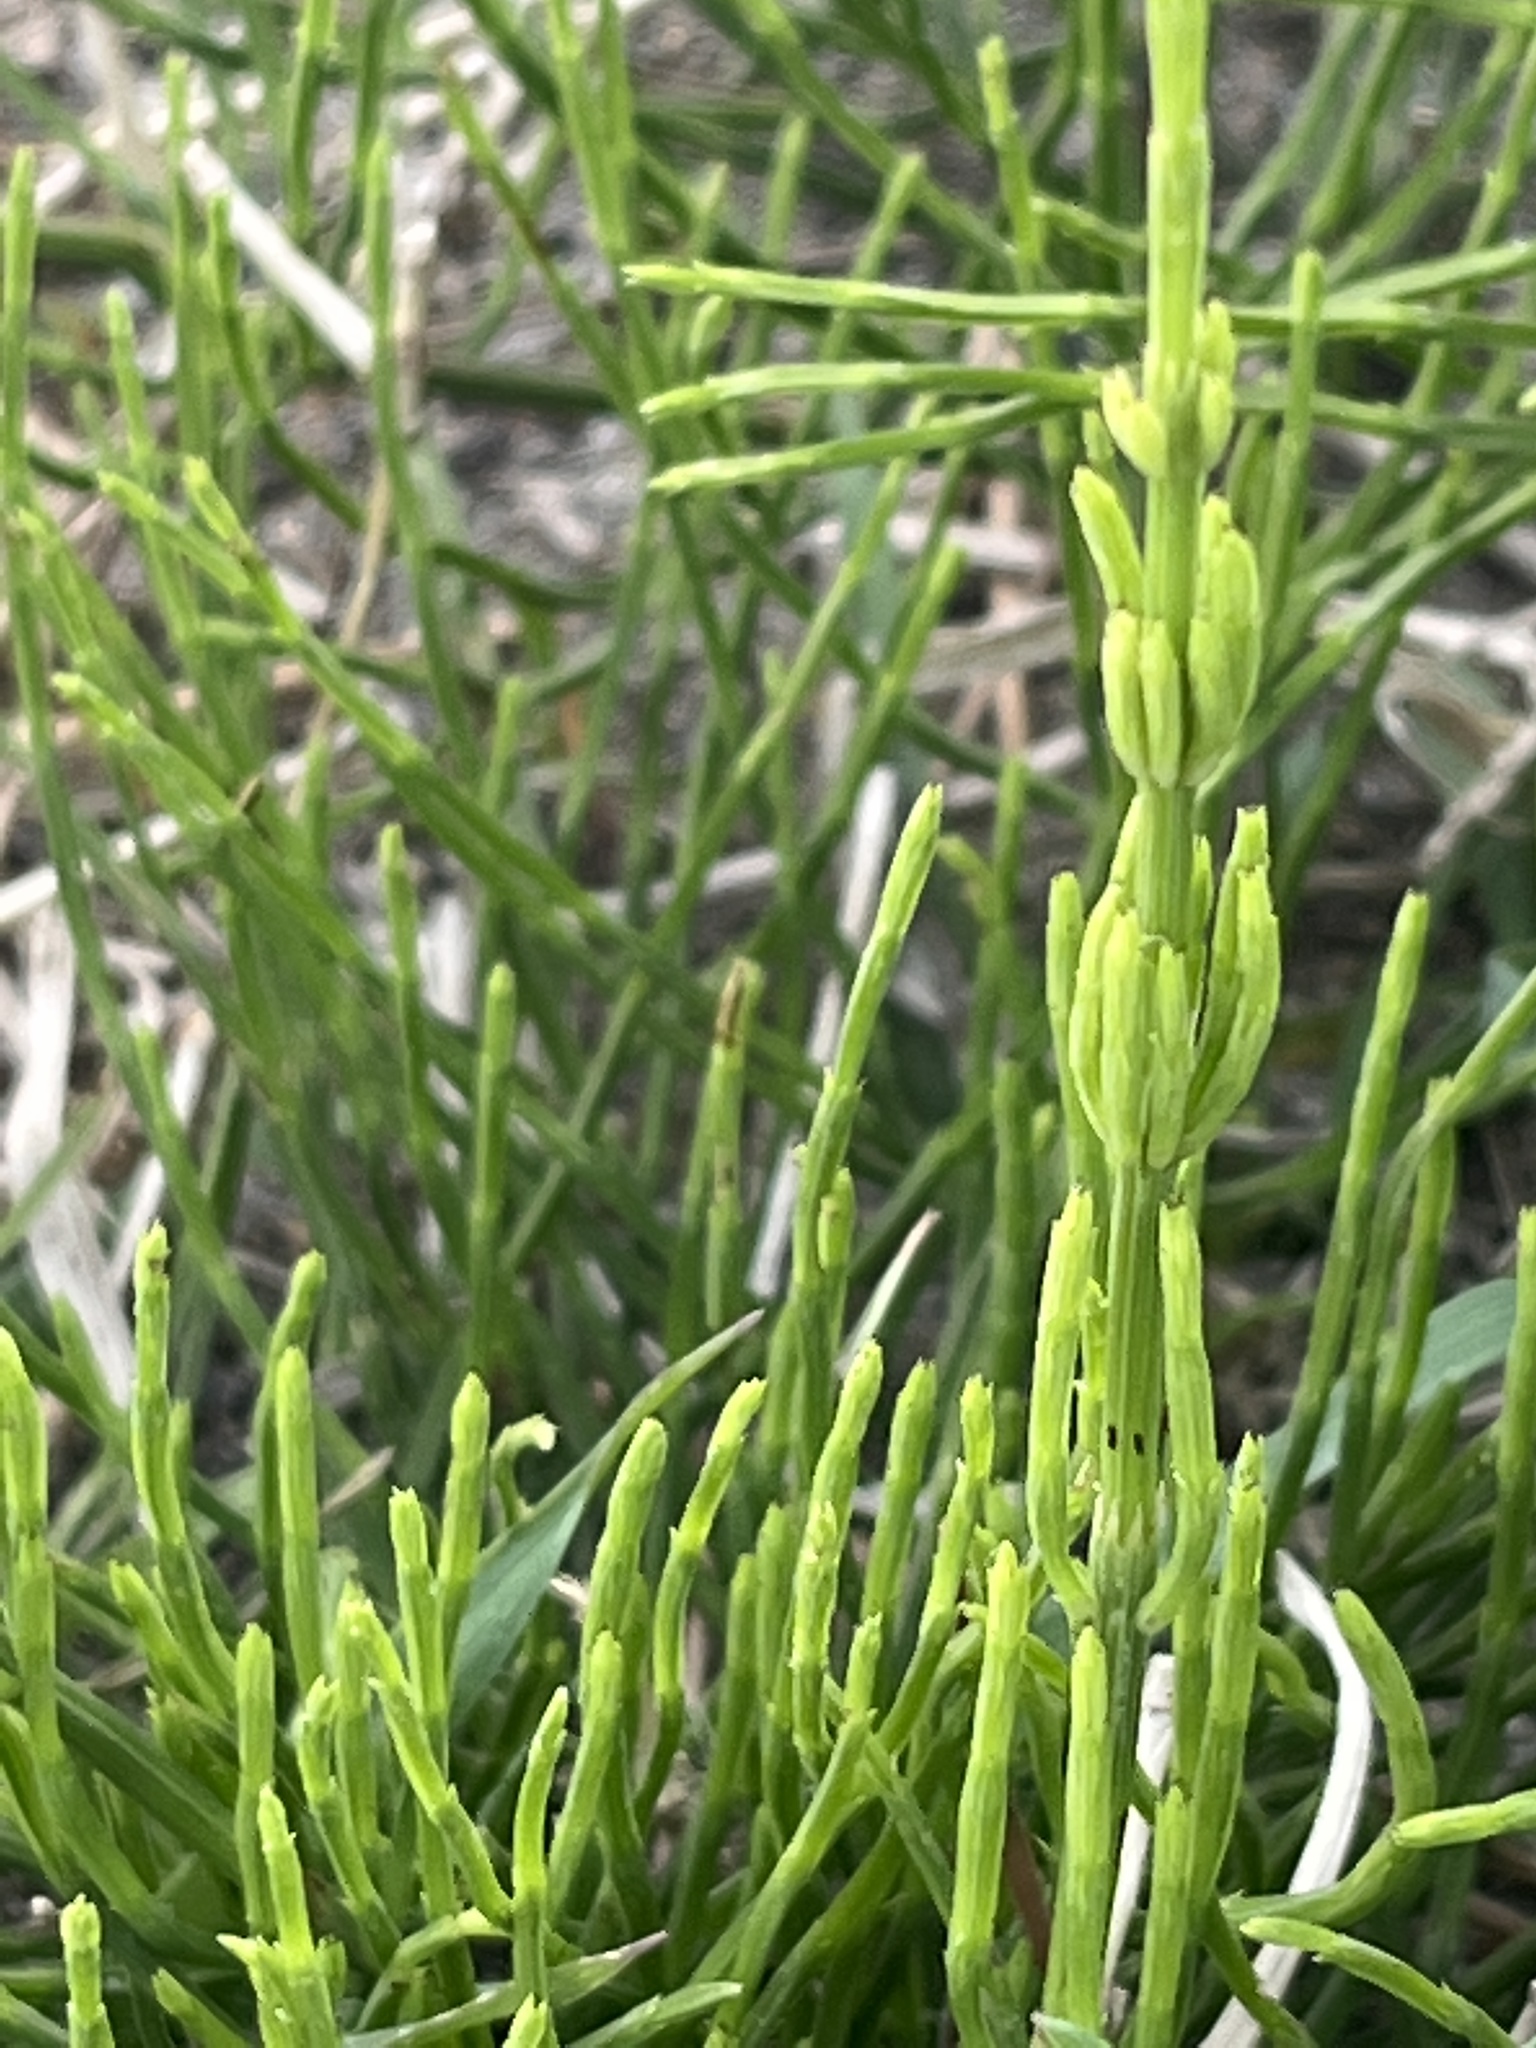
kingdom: Plantae
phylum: Tracheophyta
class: Polypodiopsida
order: Equisetales
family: Equisetaceae
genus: Equisetum
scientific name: Equisetum arvense
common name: Field horsetail
